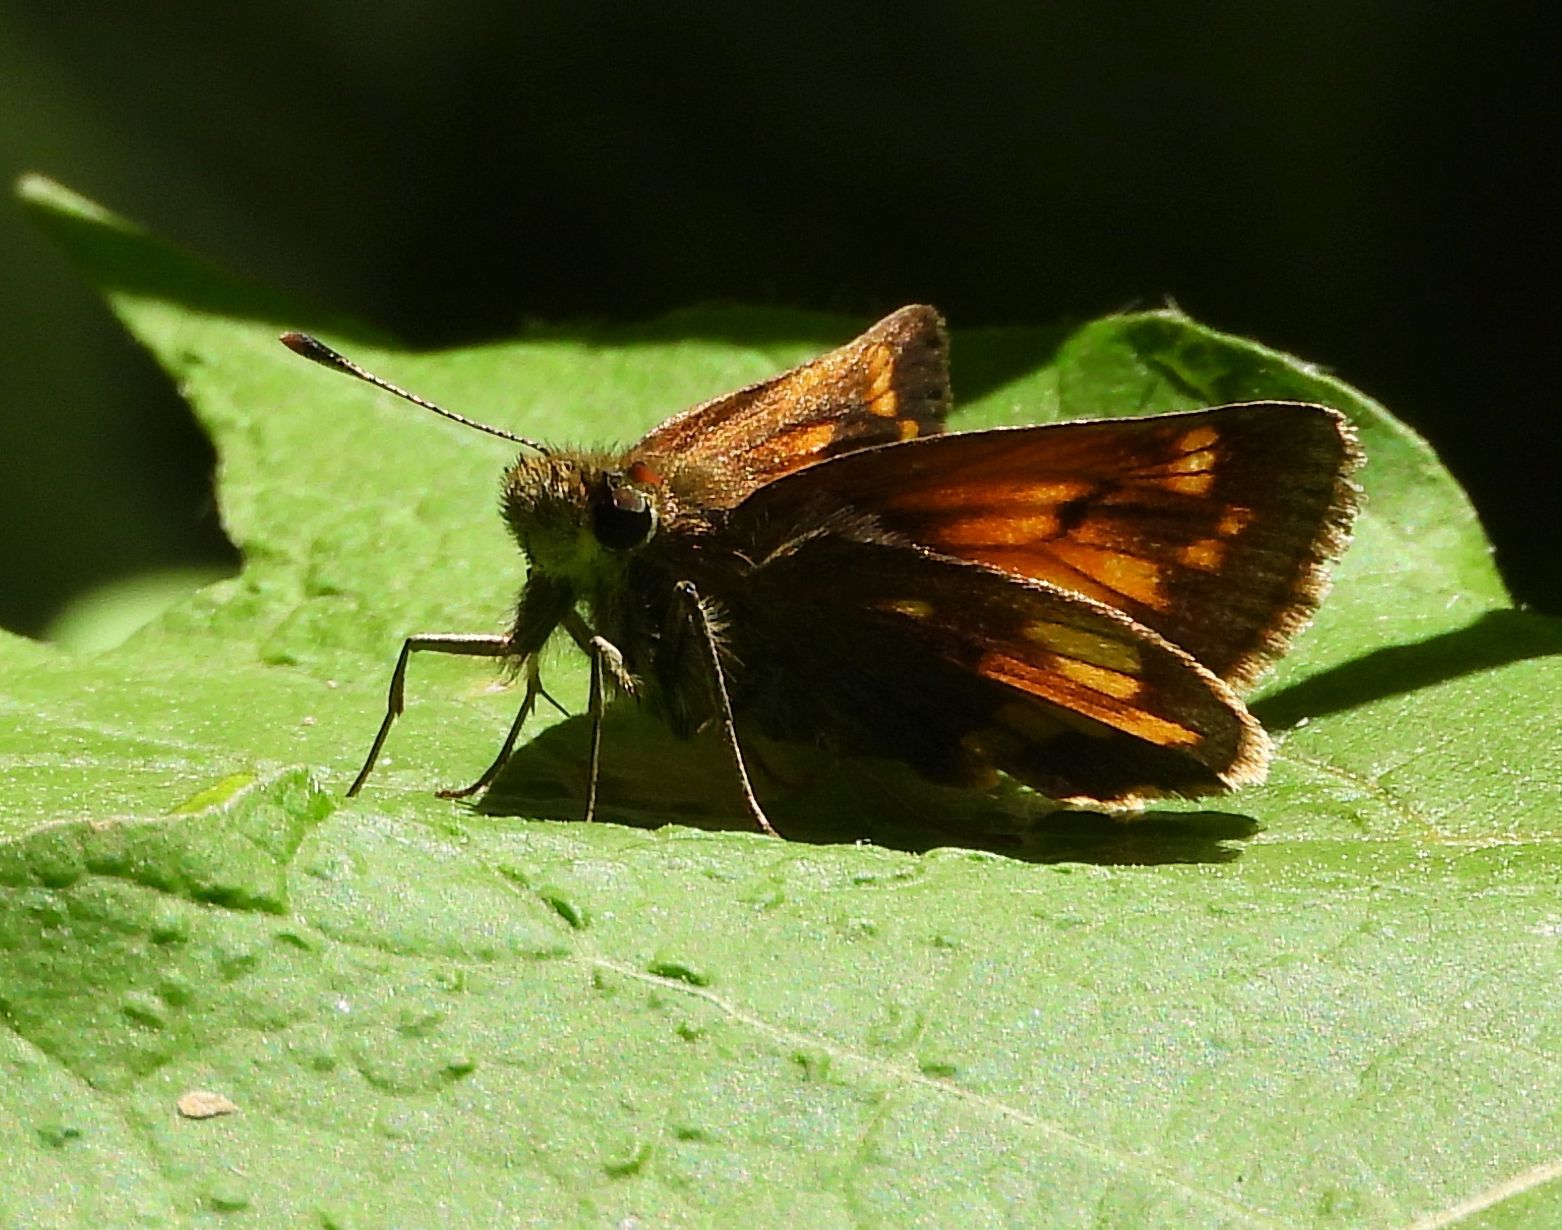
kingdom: Animalia
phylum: Arthropoda
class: Insecta
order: Lepidoptera
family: Hesperiidae
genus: Lon
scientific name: Lon hobomok
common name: Hobomok skipper
